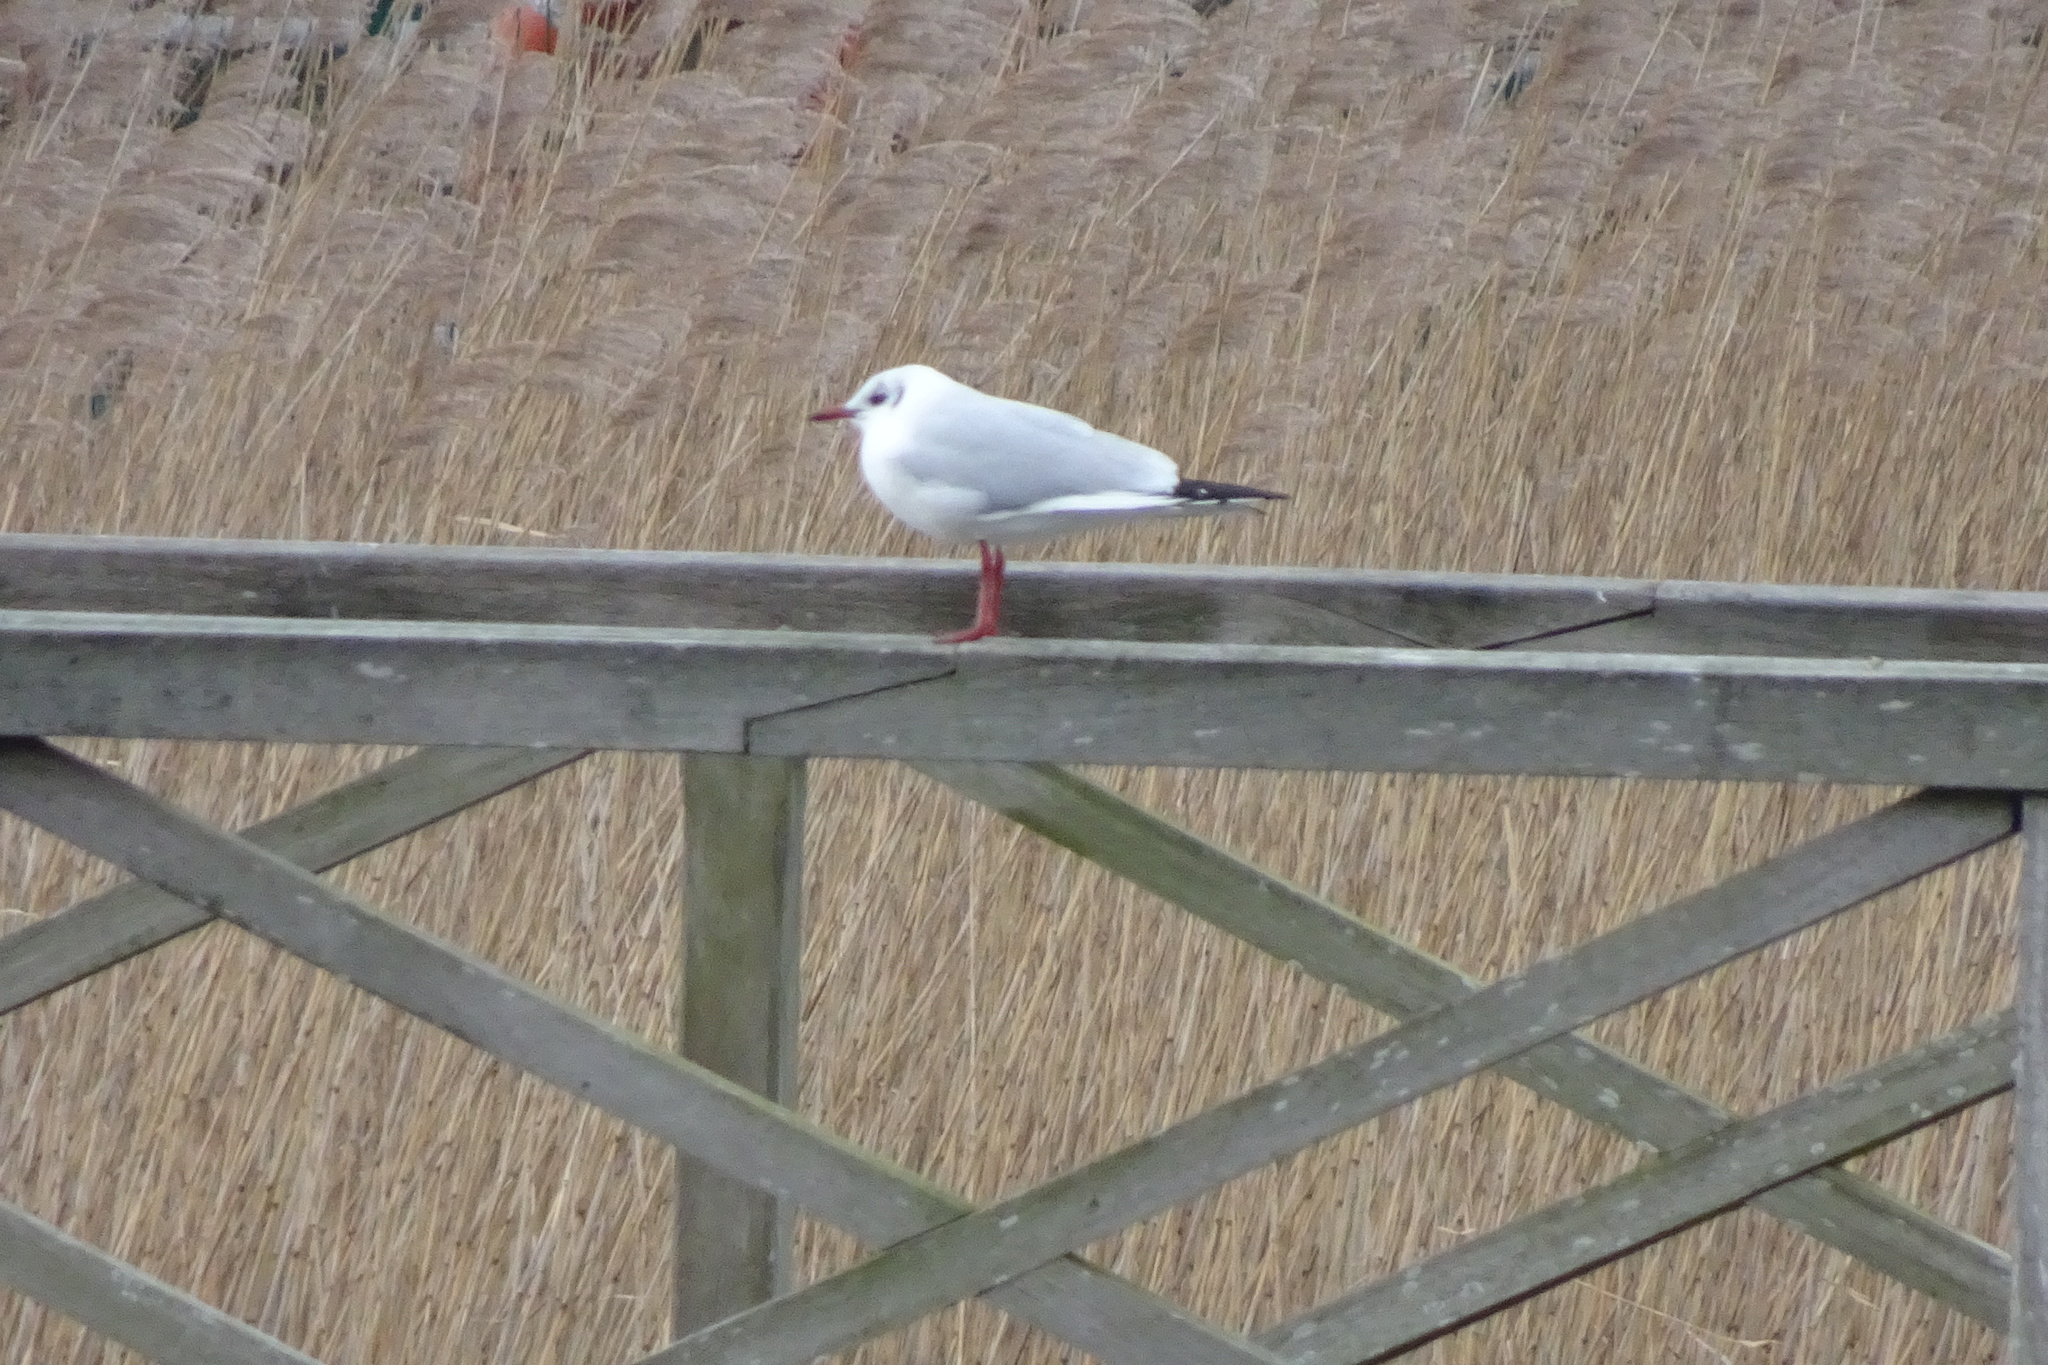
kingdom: Animalia
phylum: Chordata
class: Aves
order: Charadriiformes
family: Laridae
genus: Chroicocephalus
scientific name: Chroicocephalus ridibundus
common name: Black-headed gull
